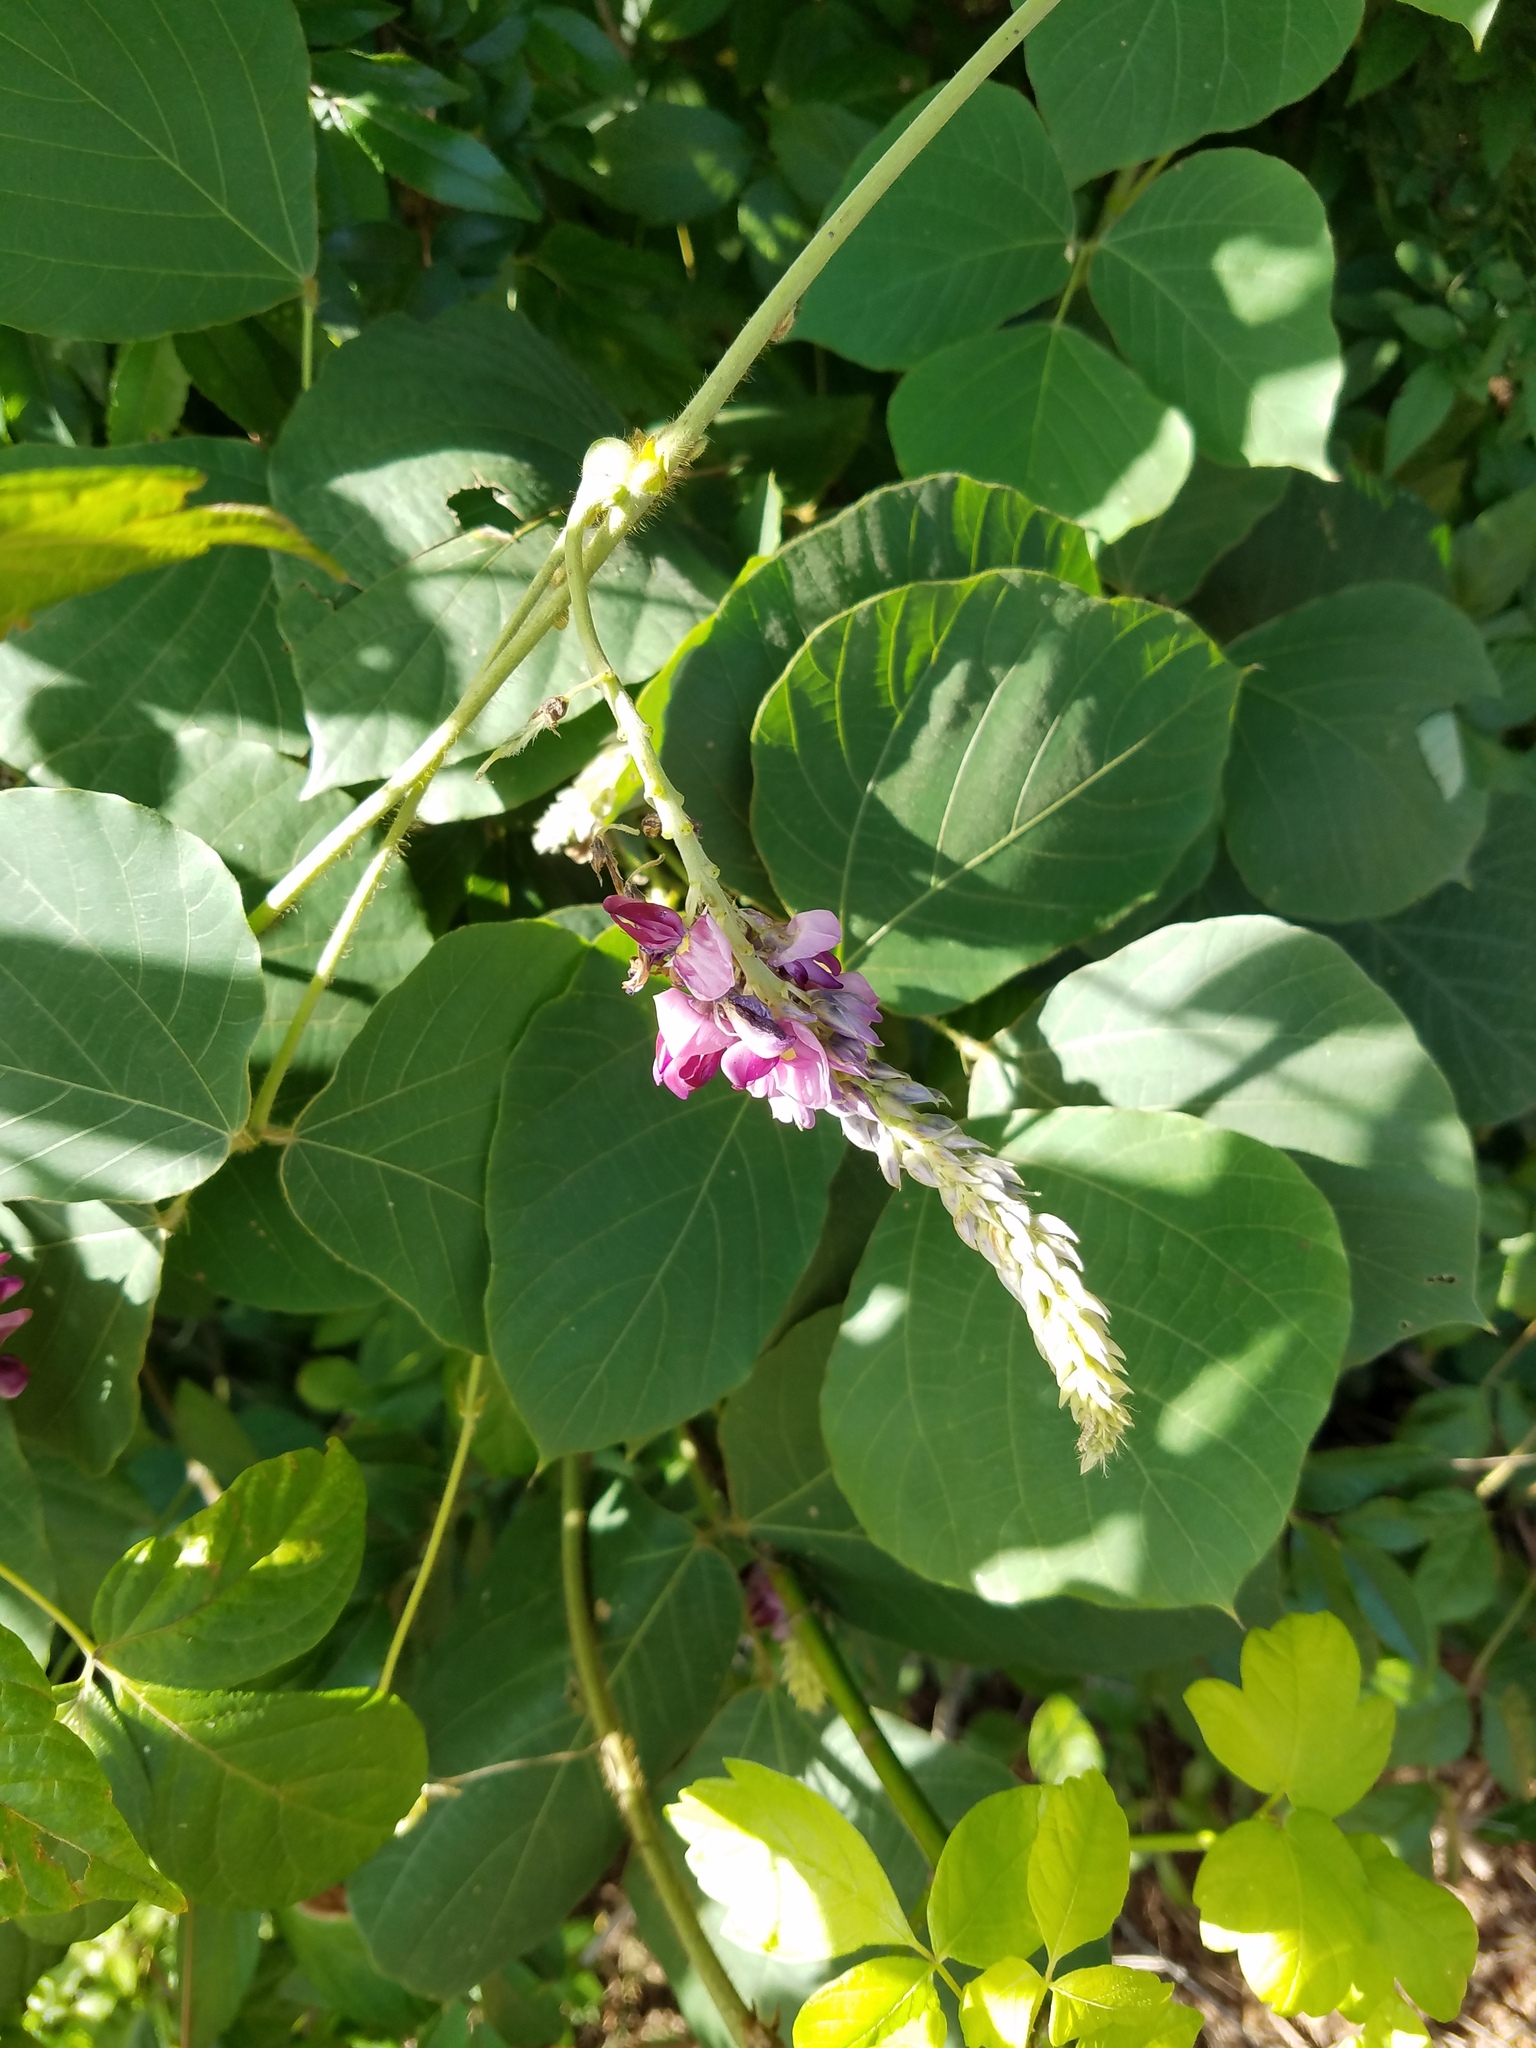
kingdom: Plantae
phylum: Tracheophyta
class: Magnoliopsida
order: Fabales
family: Fabaceae
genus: Pueraria
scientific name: Pueraria montana
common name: Kudzu
